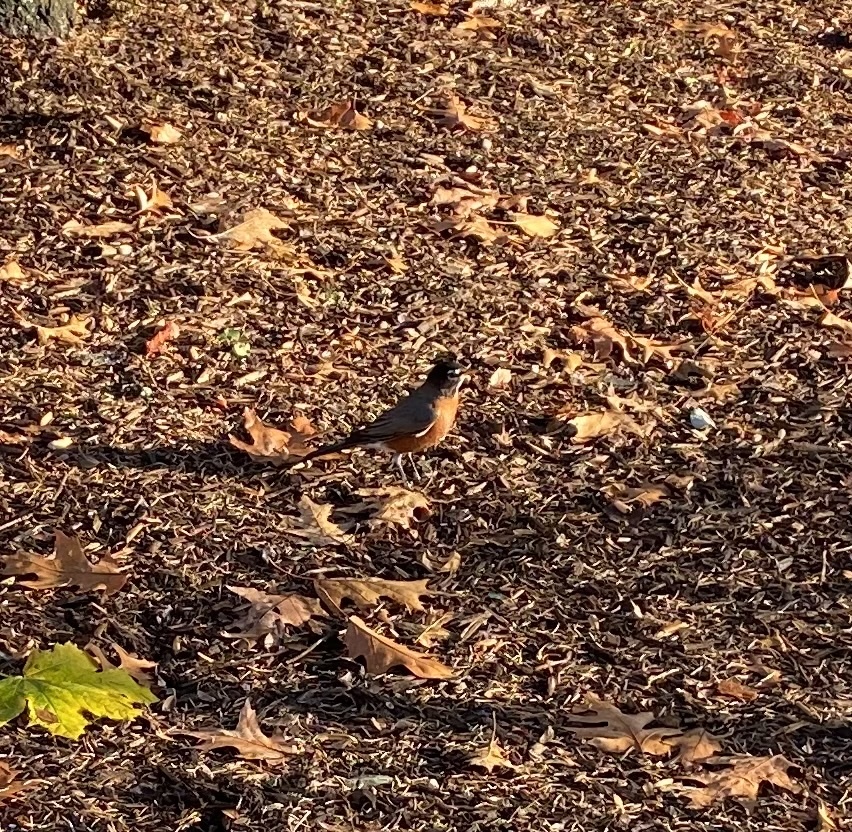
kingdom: Animalia
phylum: Chordata
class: Aves
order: Passeriformes
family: Turdidae
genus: Turdus
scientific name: Turdus migratorius
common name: American robin
